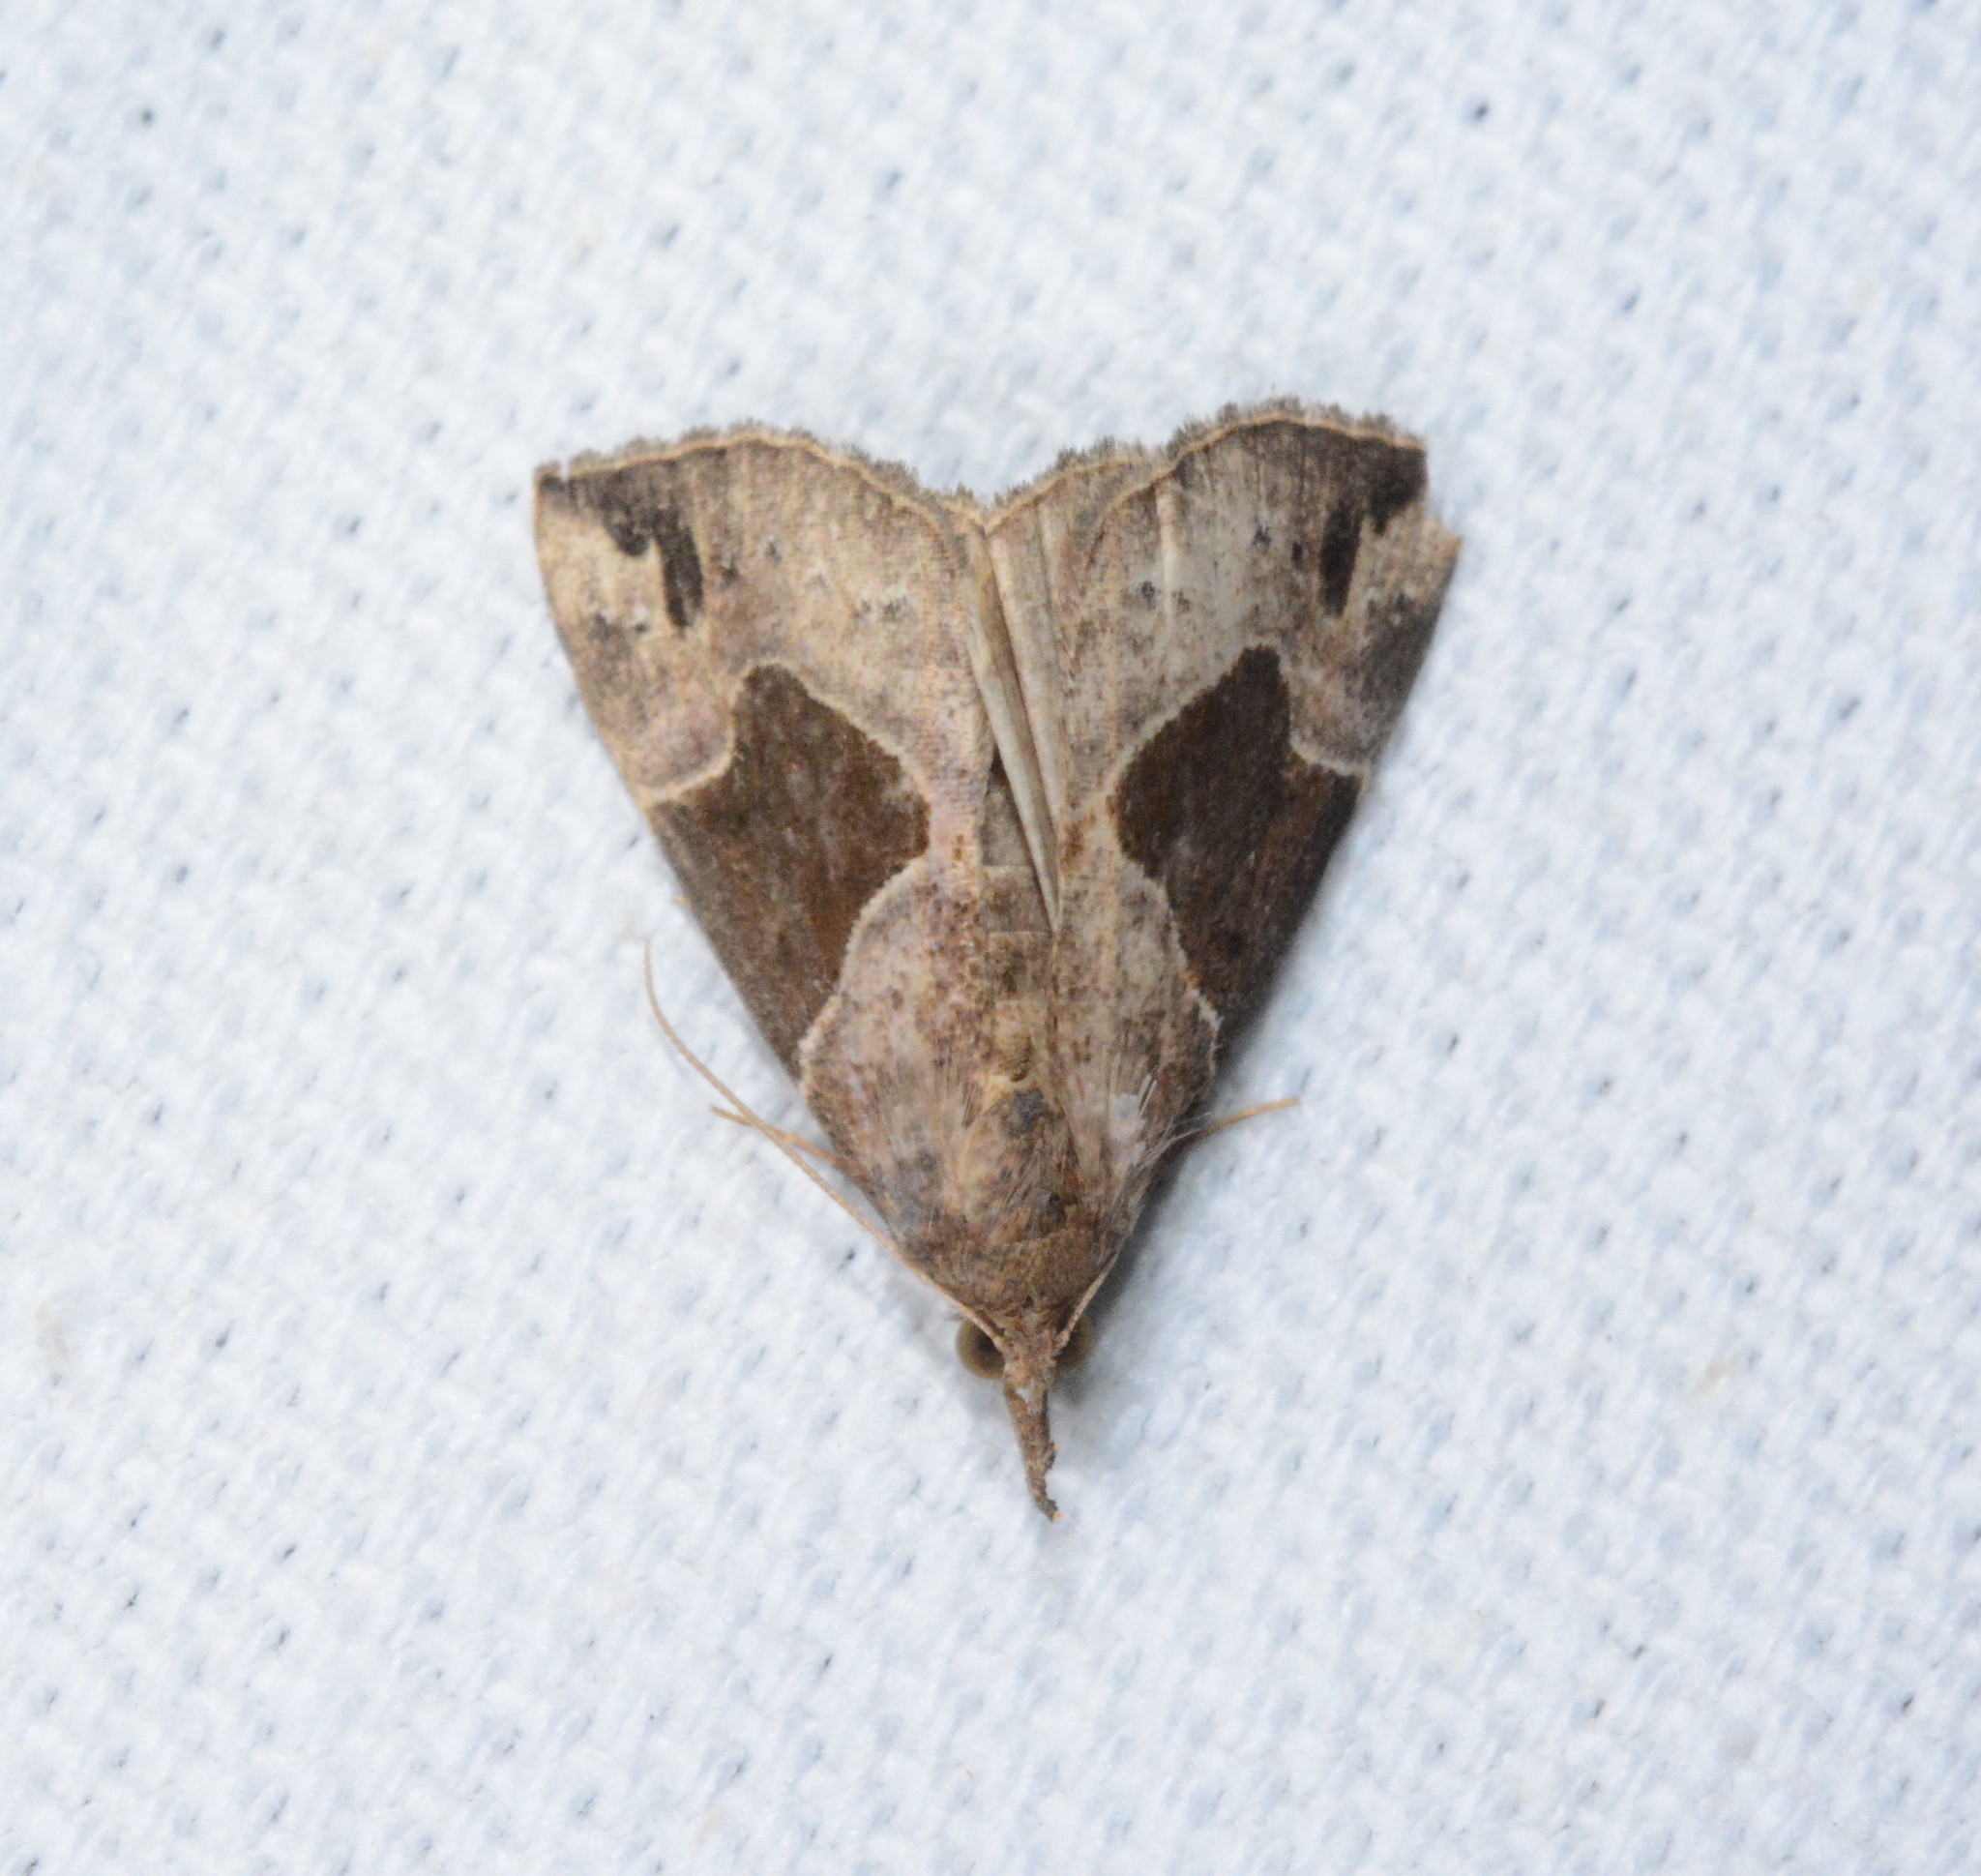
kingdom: Animalia
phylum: Arthropoda
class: Insecta
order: Lepidoptera
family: Erebidae
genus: Hypena
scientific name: Hypena manalis
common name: Flowing-line bomolocha moth
